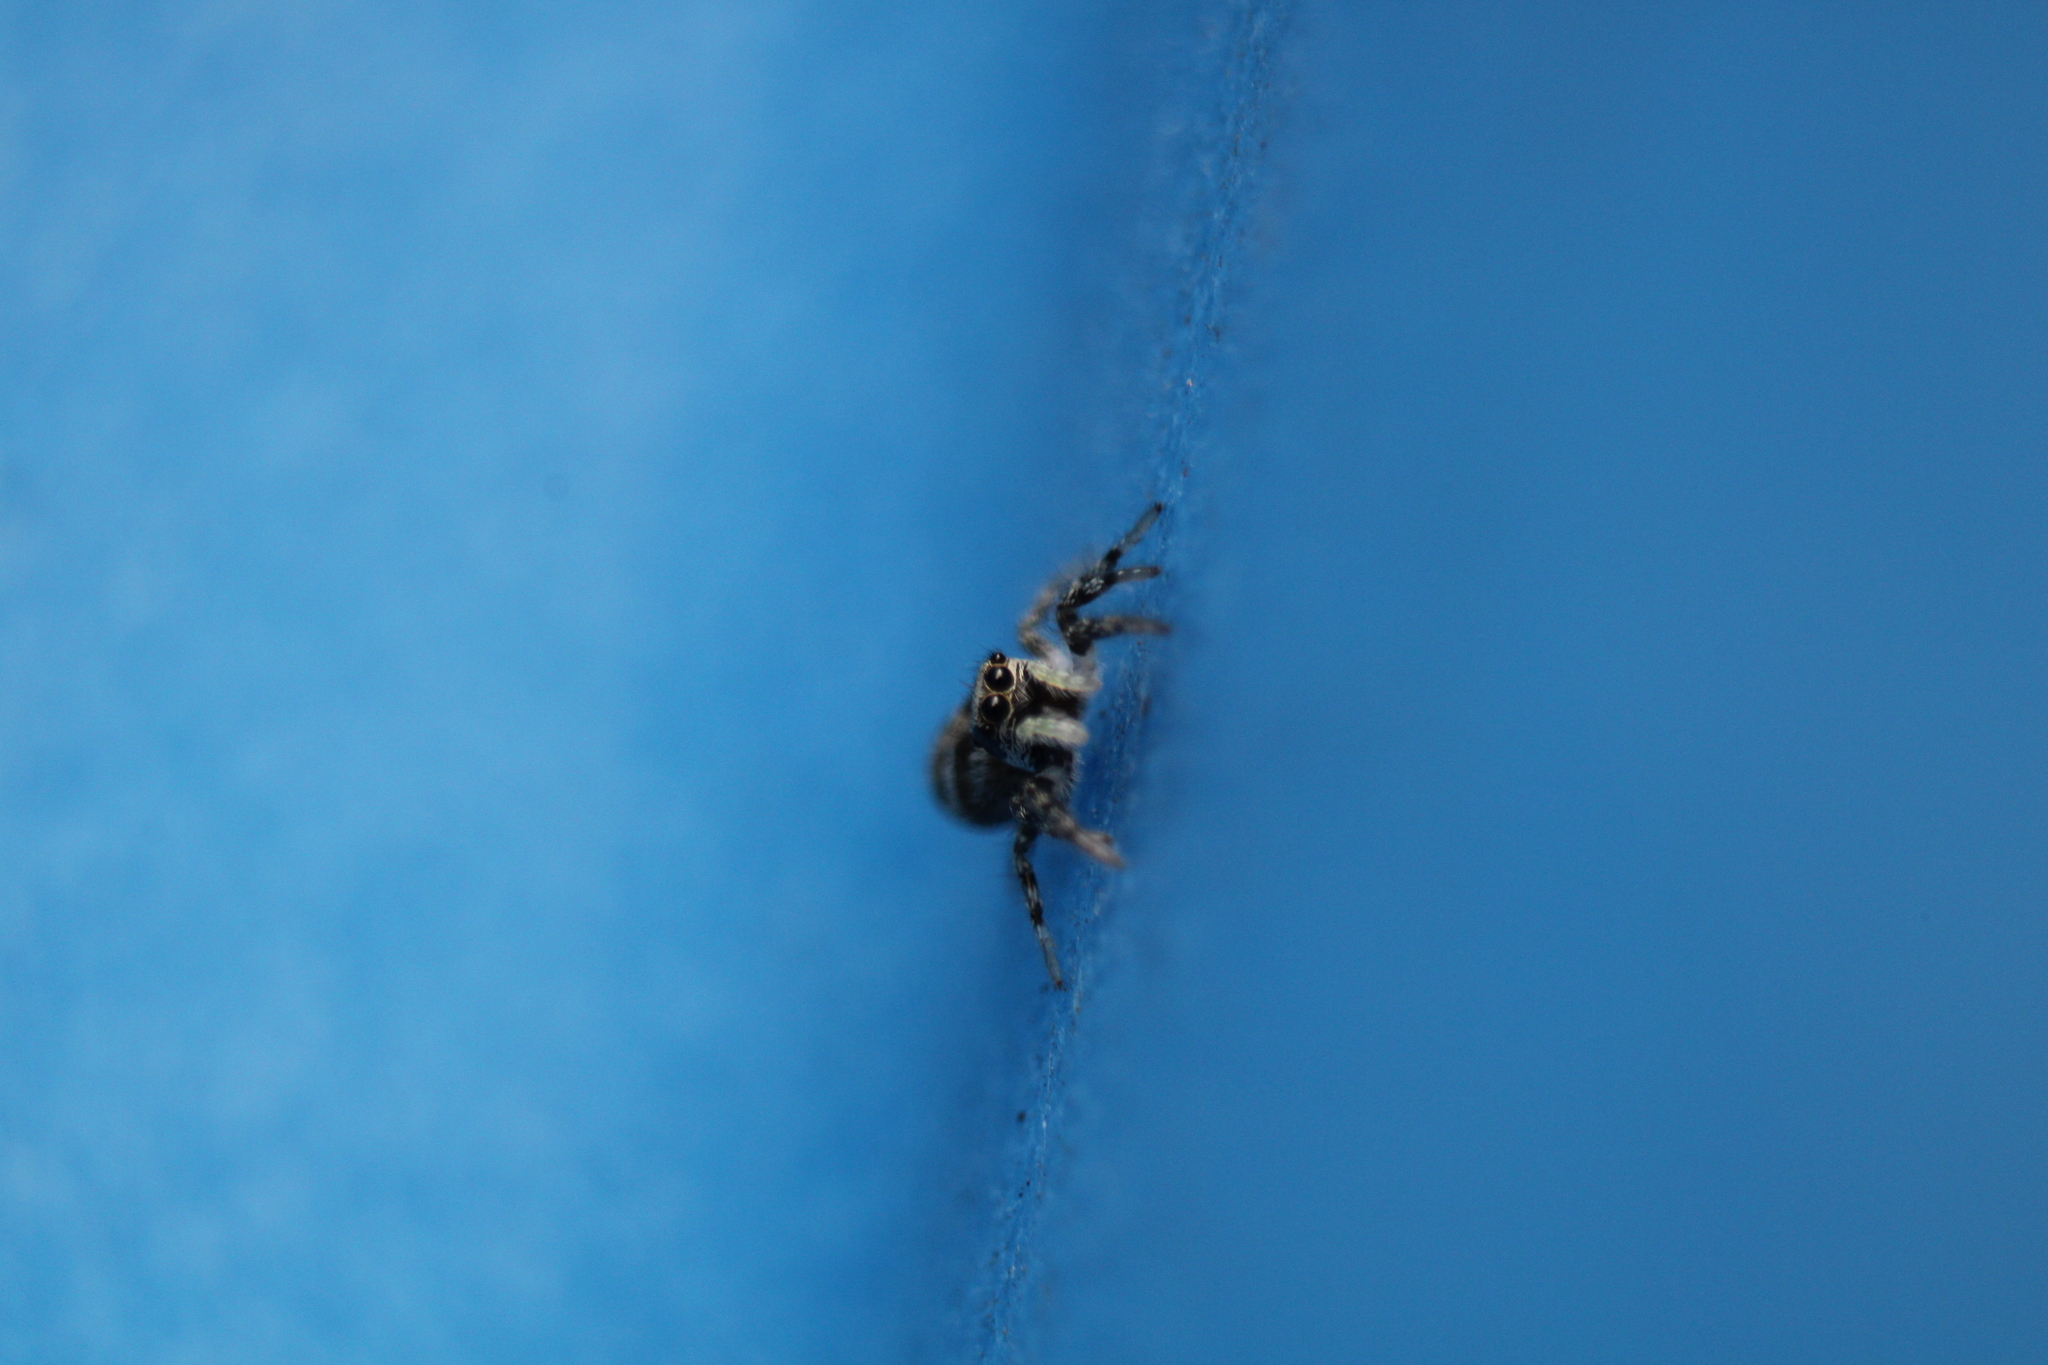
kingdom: Animalia
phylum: Arthropoda
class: Arachnida
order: Araneae
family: Salticidae
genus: Salticus
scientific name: Salticus scenicus
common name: Zebra jumper
